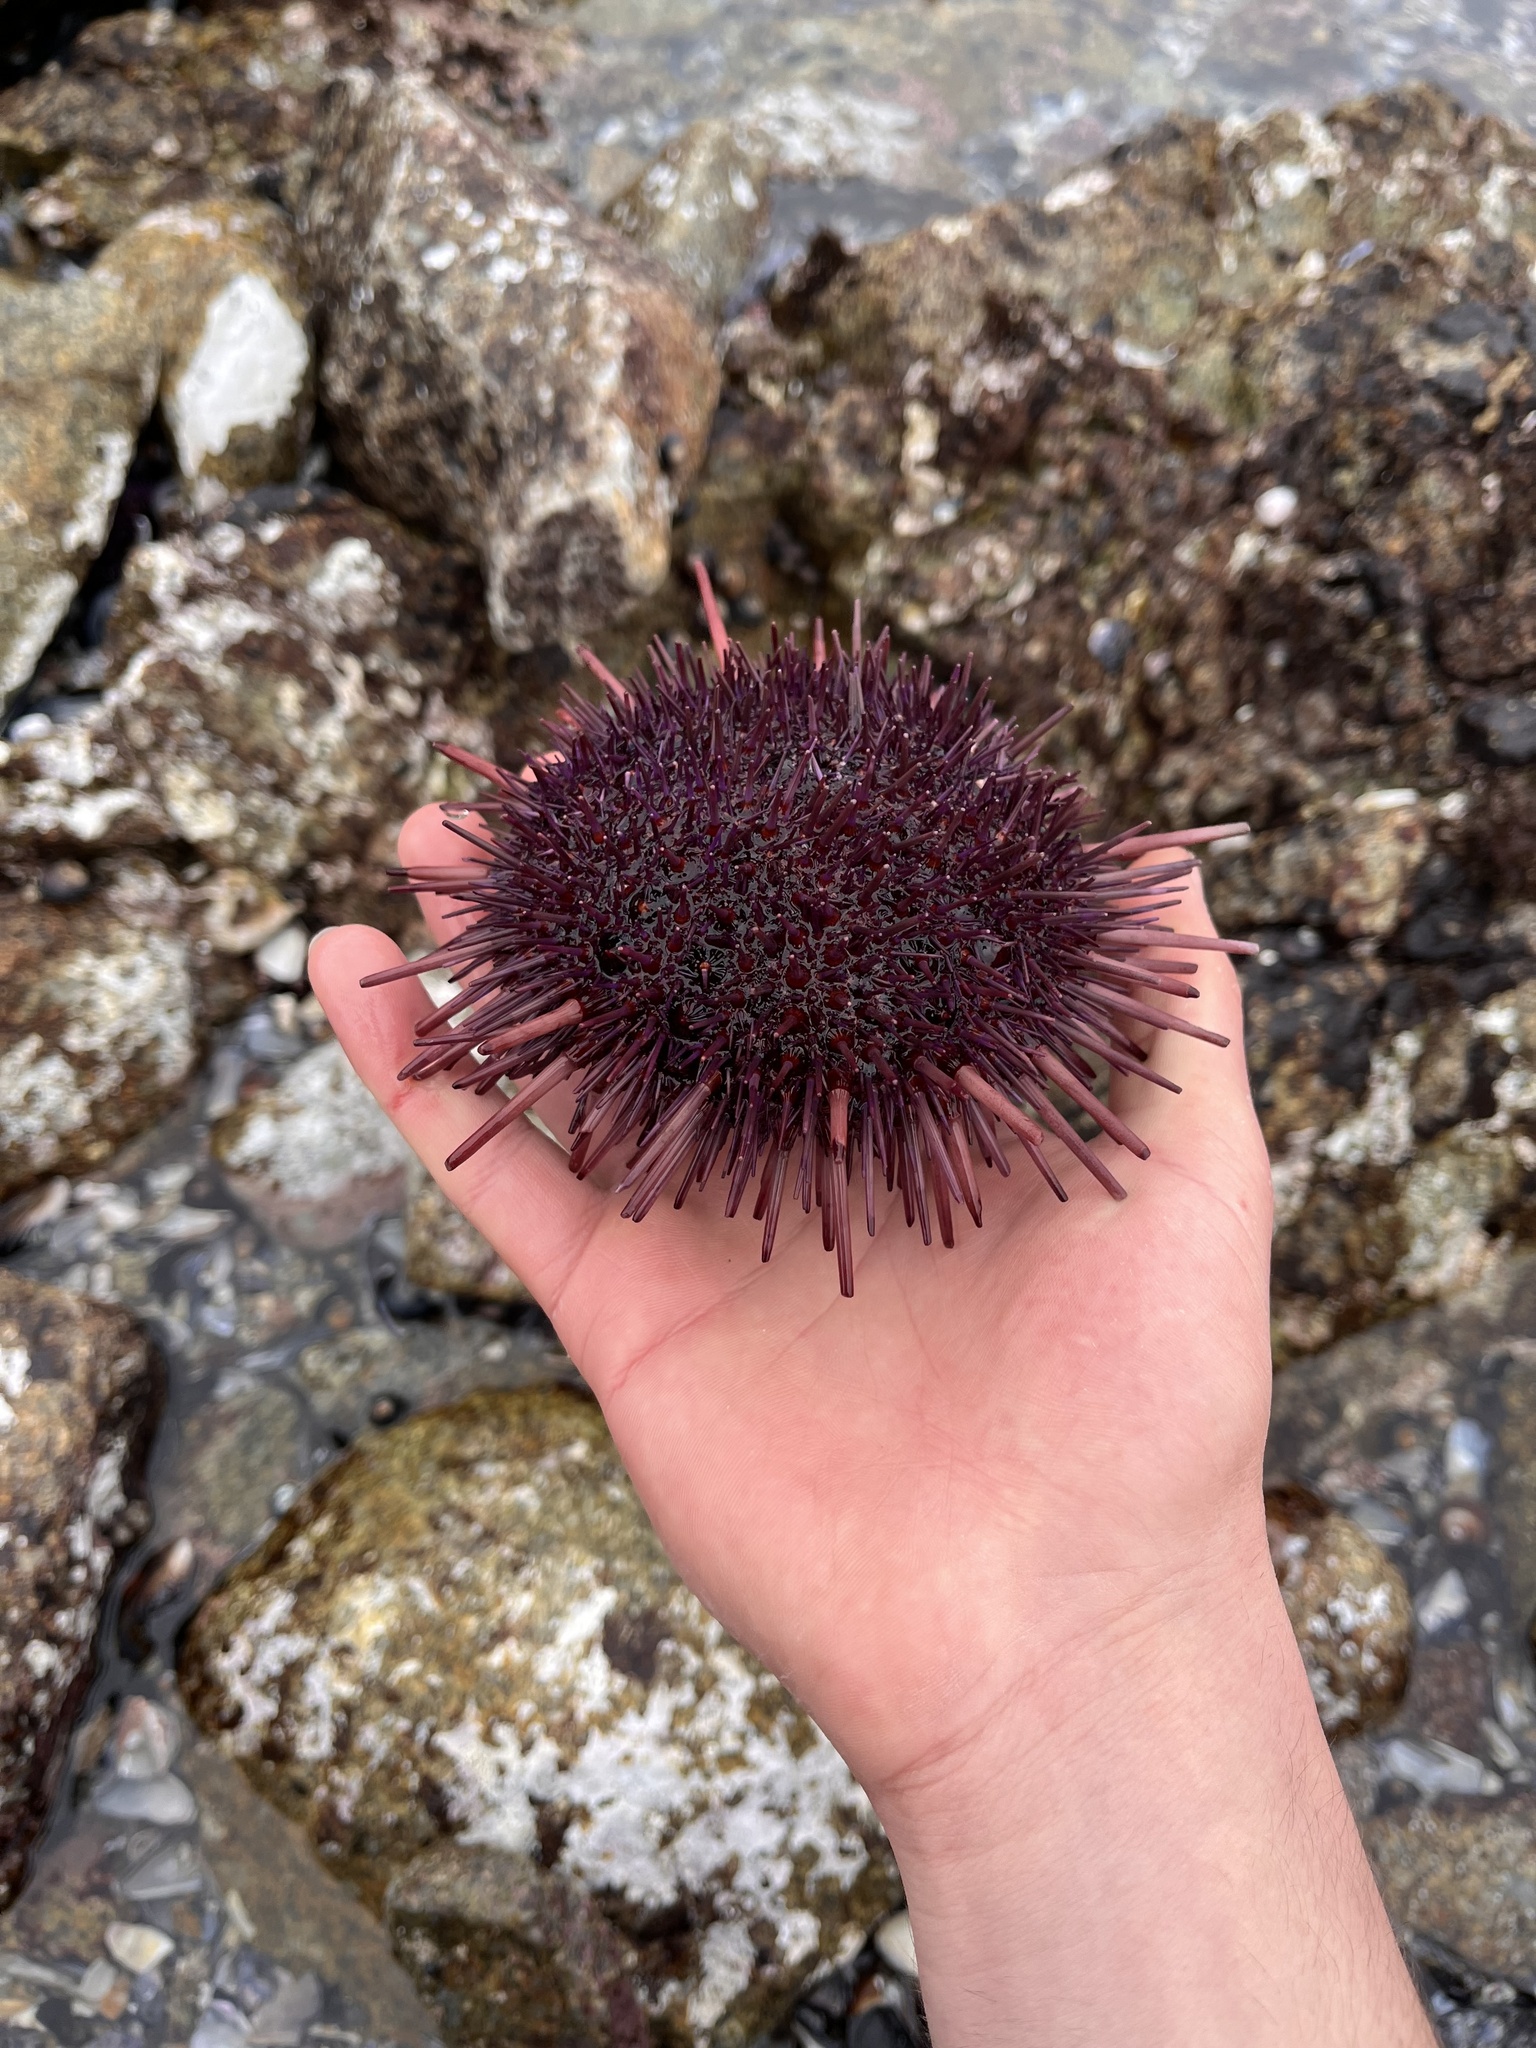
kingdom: Animalia
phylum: Echinodermata
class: Echinoidea
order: Camarodonta
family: Strongylocentrotidae
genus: Mesocentrotus
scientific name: Mesocentrotus franciscanus
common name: Red sea urchin
